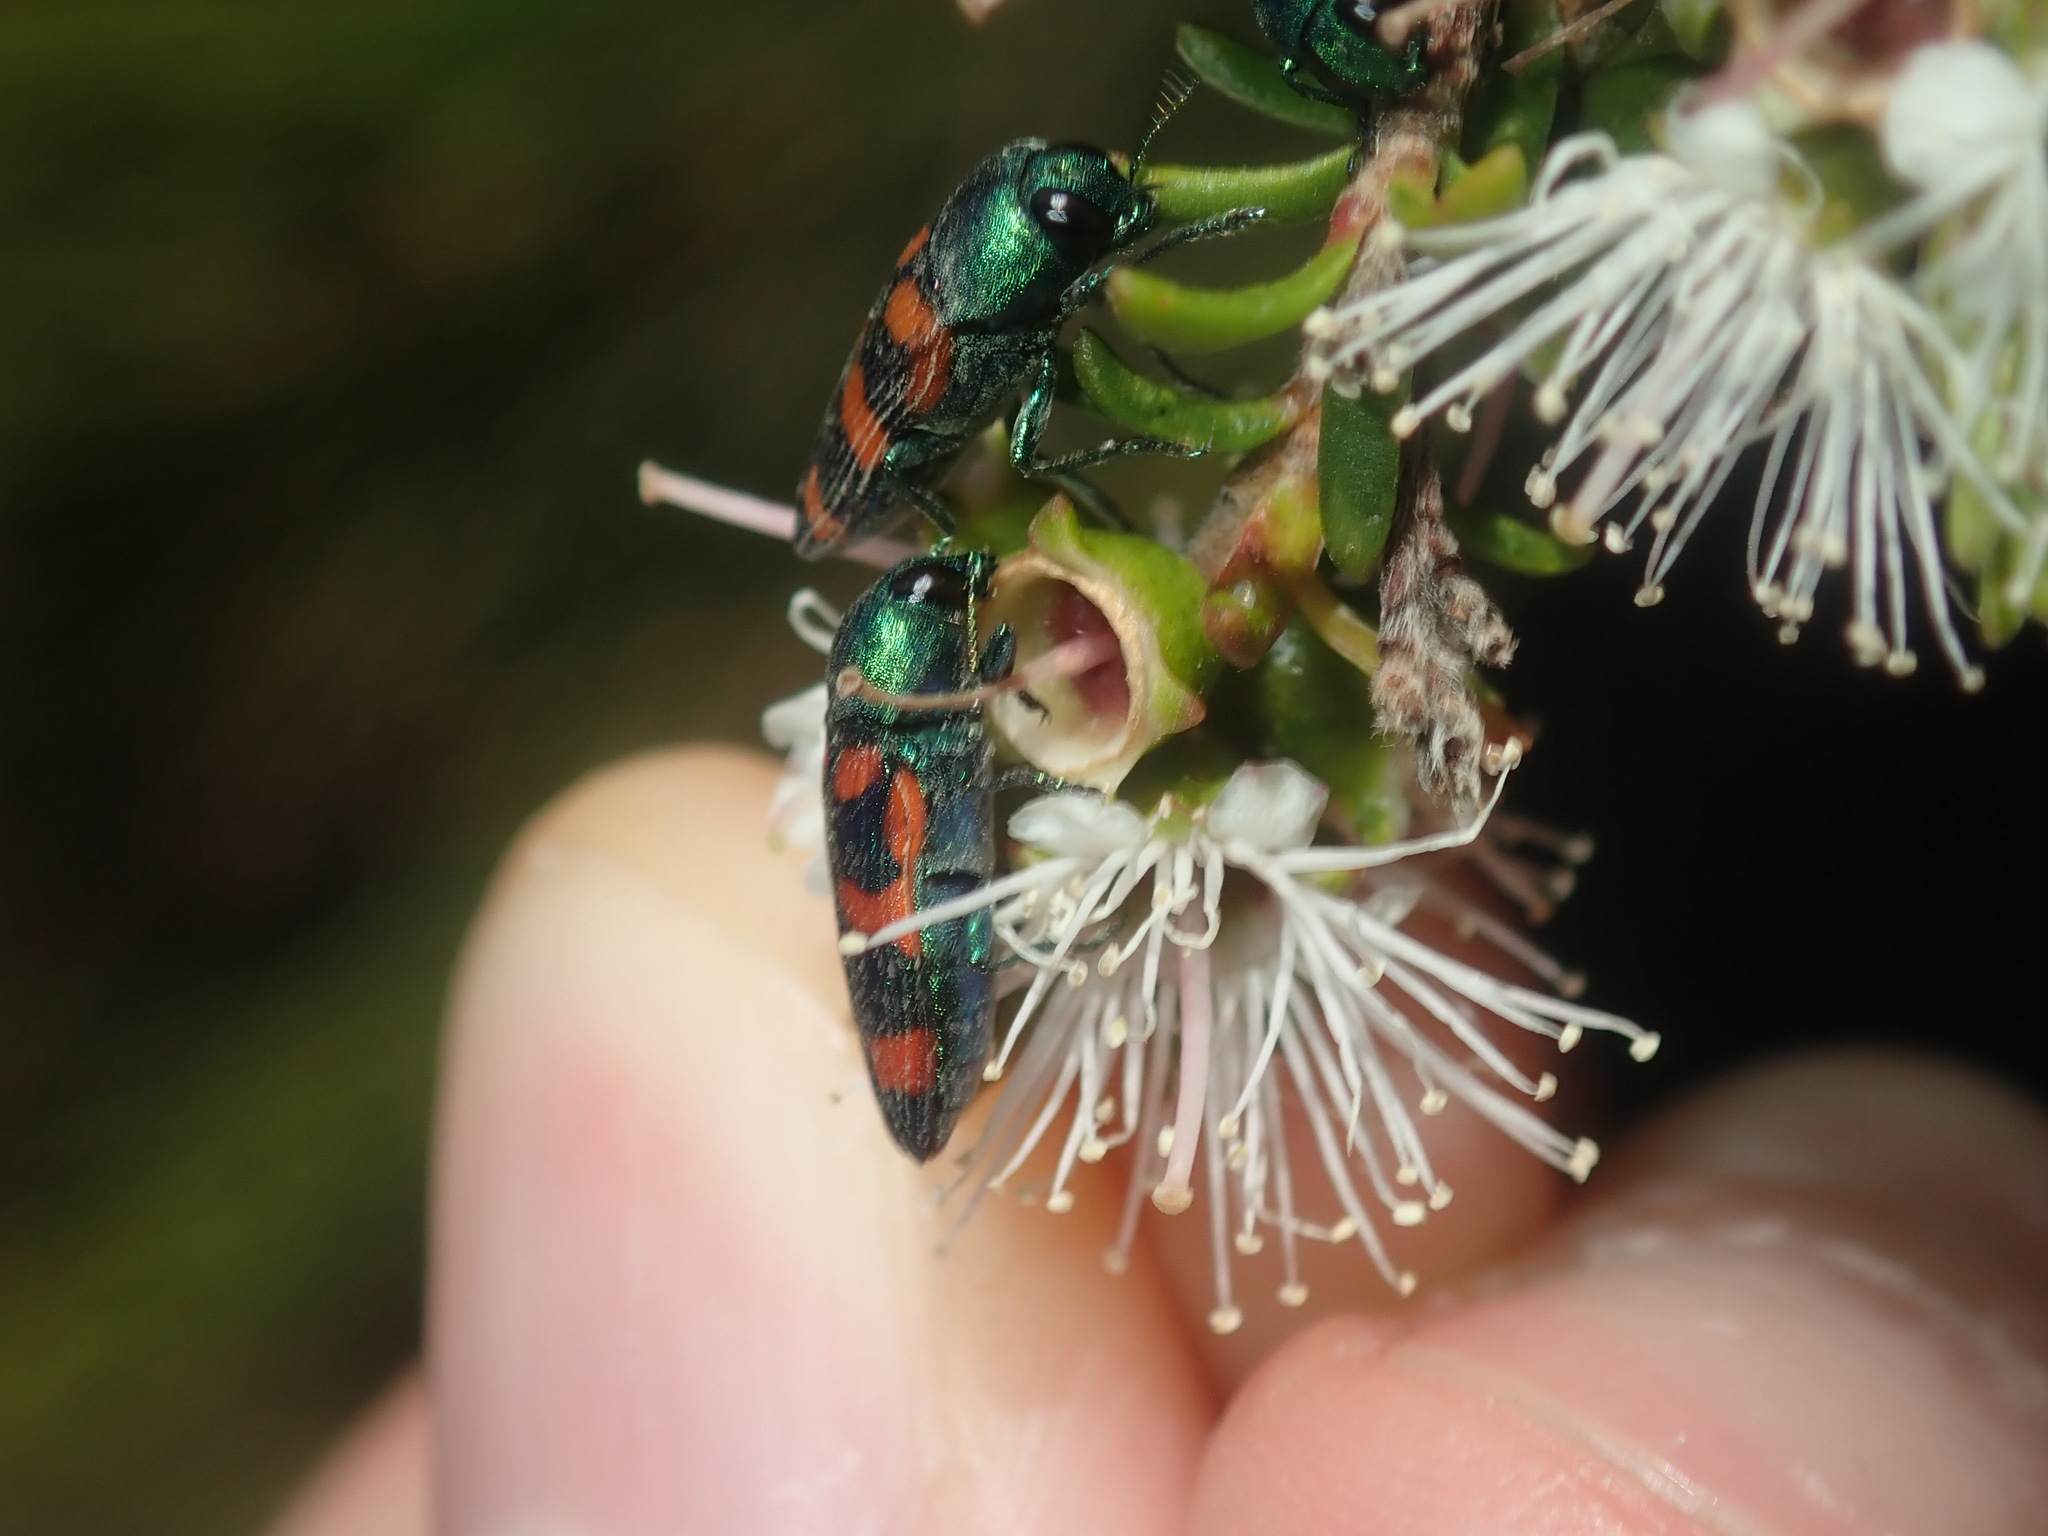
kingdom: Animalia
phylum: Arthropoda
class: Insecta
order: Coleoptera
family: Buprestidae
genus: Castiarina
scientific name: Castiarina cruentata
